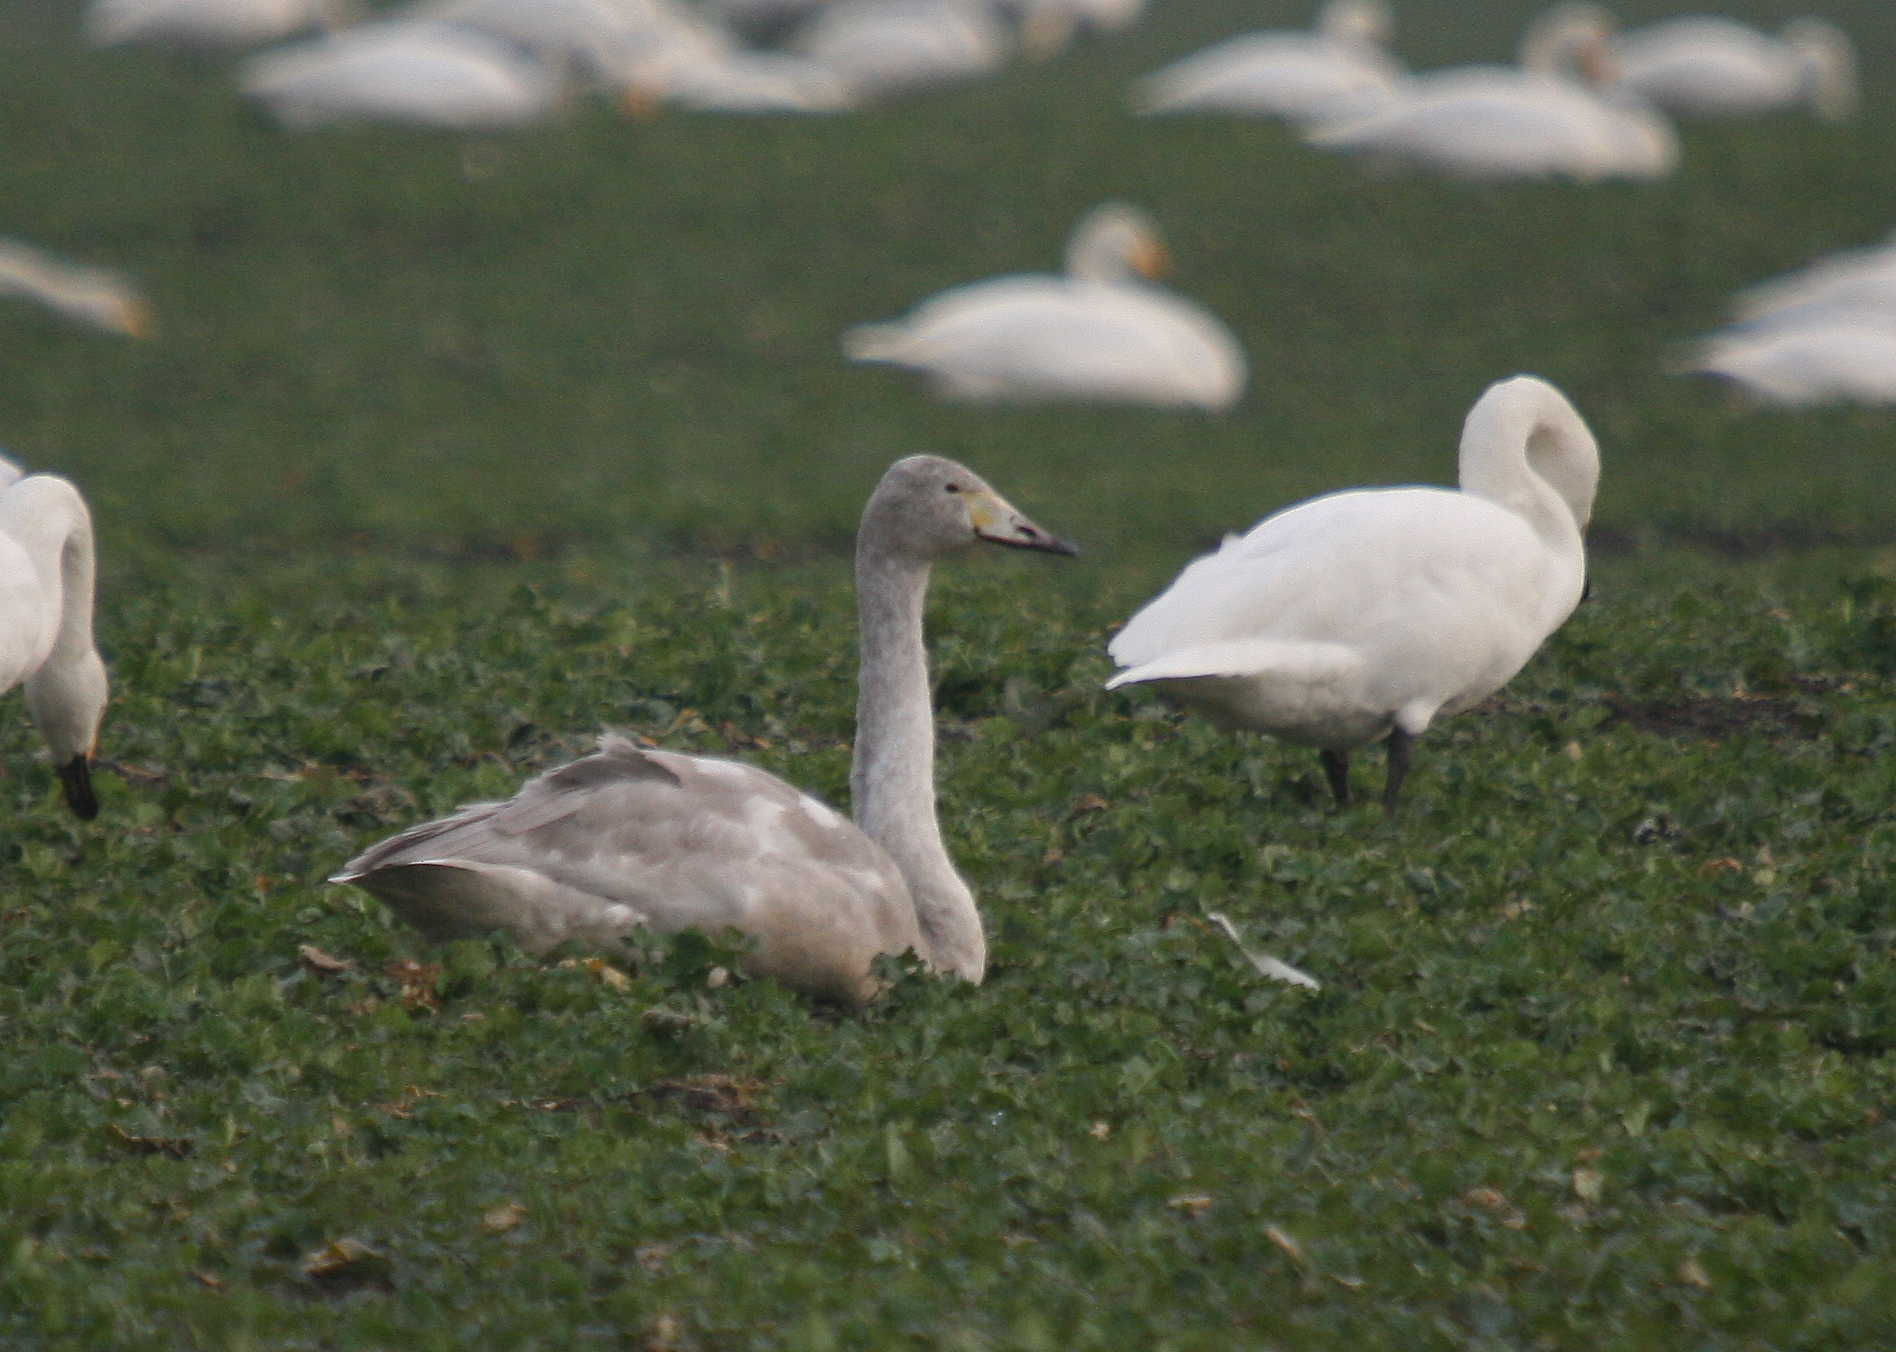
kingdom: Animalia
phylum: Chordata
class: Aves
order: Anseriformes
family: Anatidae
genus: Cygnus
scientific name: Cygnus cygnus
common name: Whooper swan
